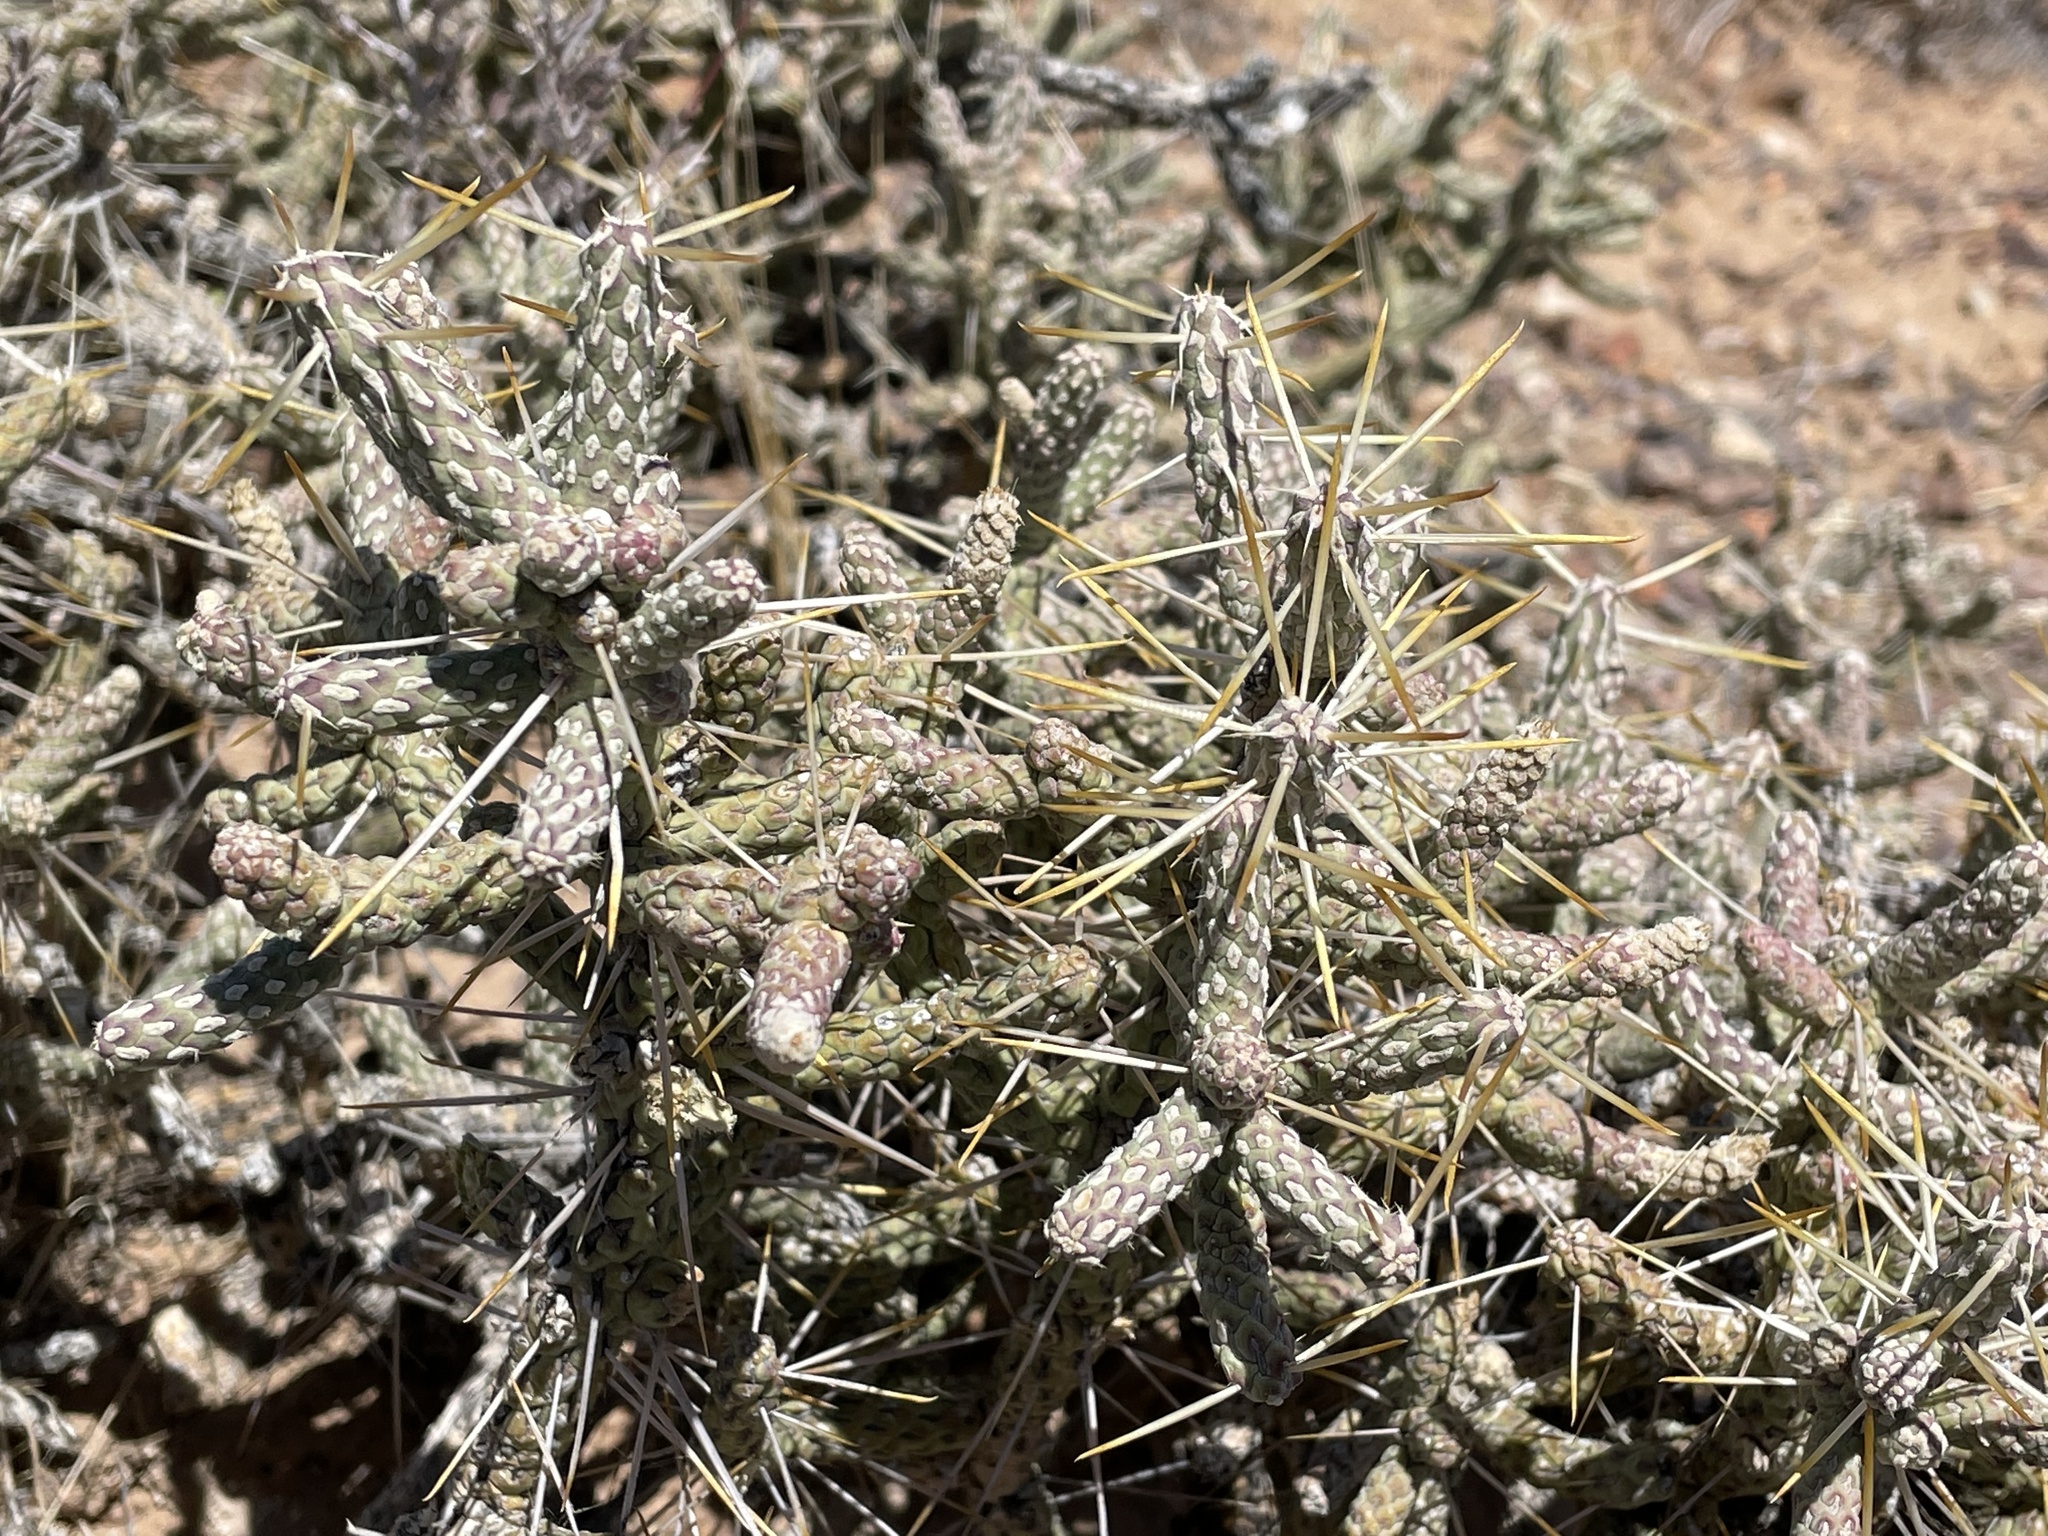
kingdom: Plantae
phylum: Tracheophyta
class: Magnoliopsida
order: Caryophyllales
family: Cactaceae
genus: Cylindropuntia
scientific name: Cylindropuntia ramosissima
